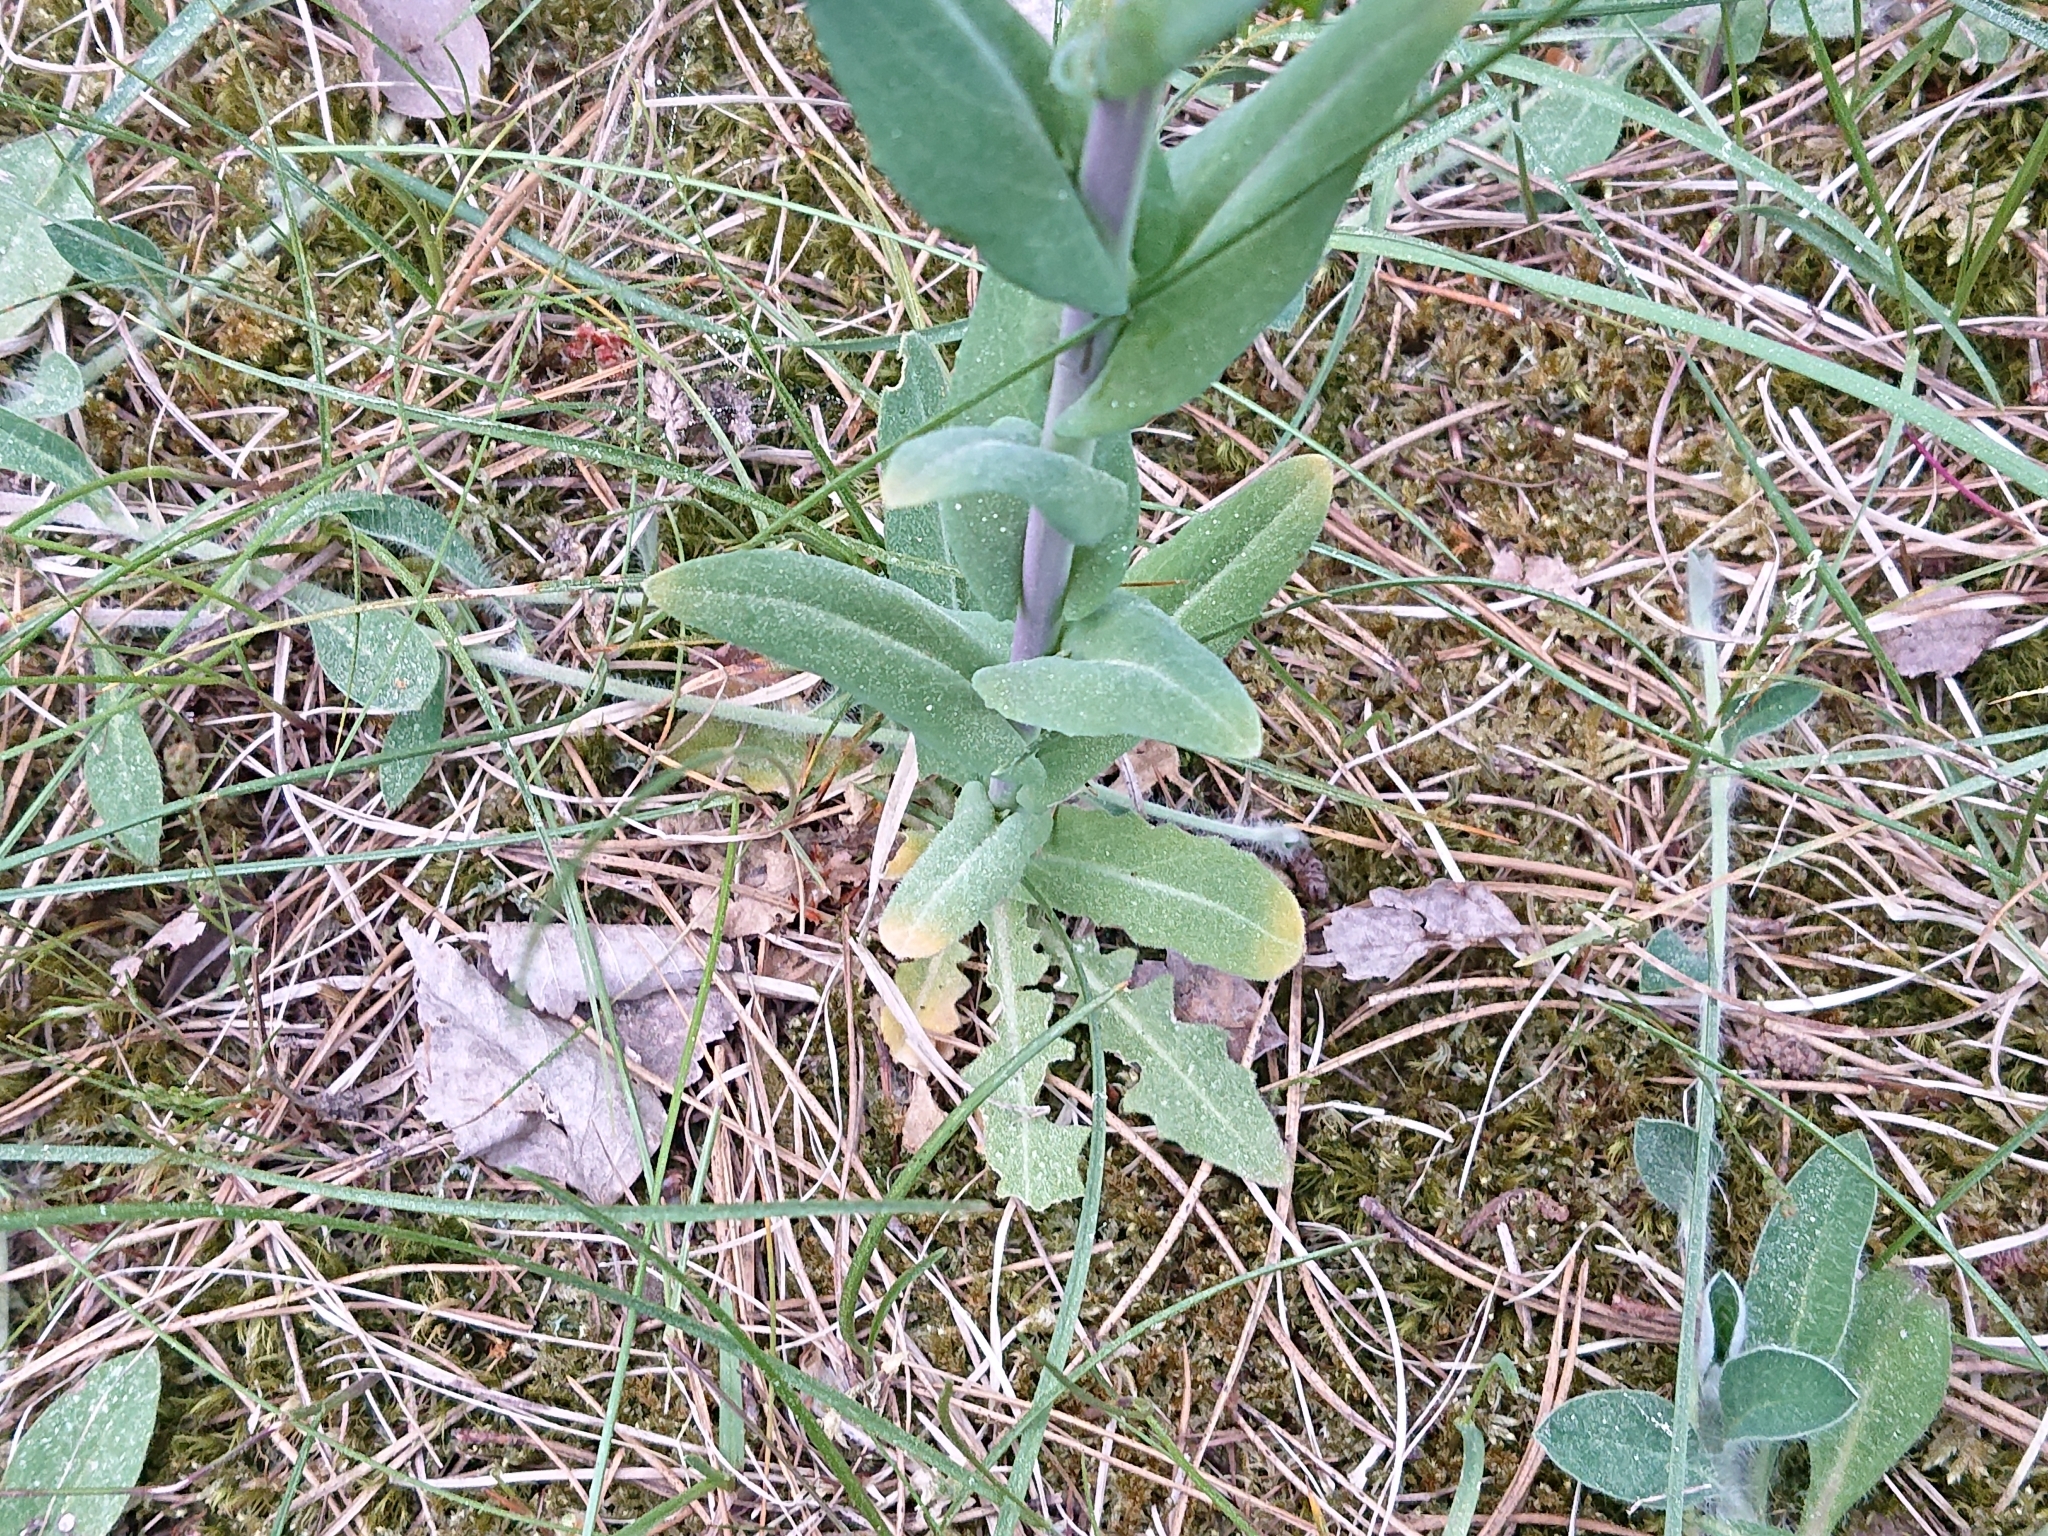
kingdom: Plantae
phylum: Tracheophyta
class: Magnoliopsida
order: Brassicales
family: Brassicaceae
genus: Turritis
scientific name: Turritis glabra
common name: Tower rockcress
